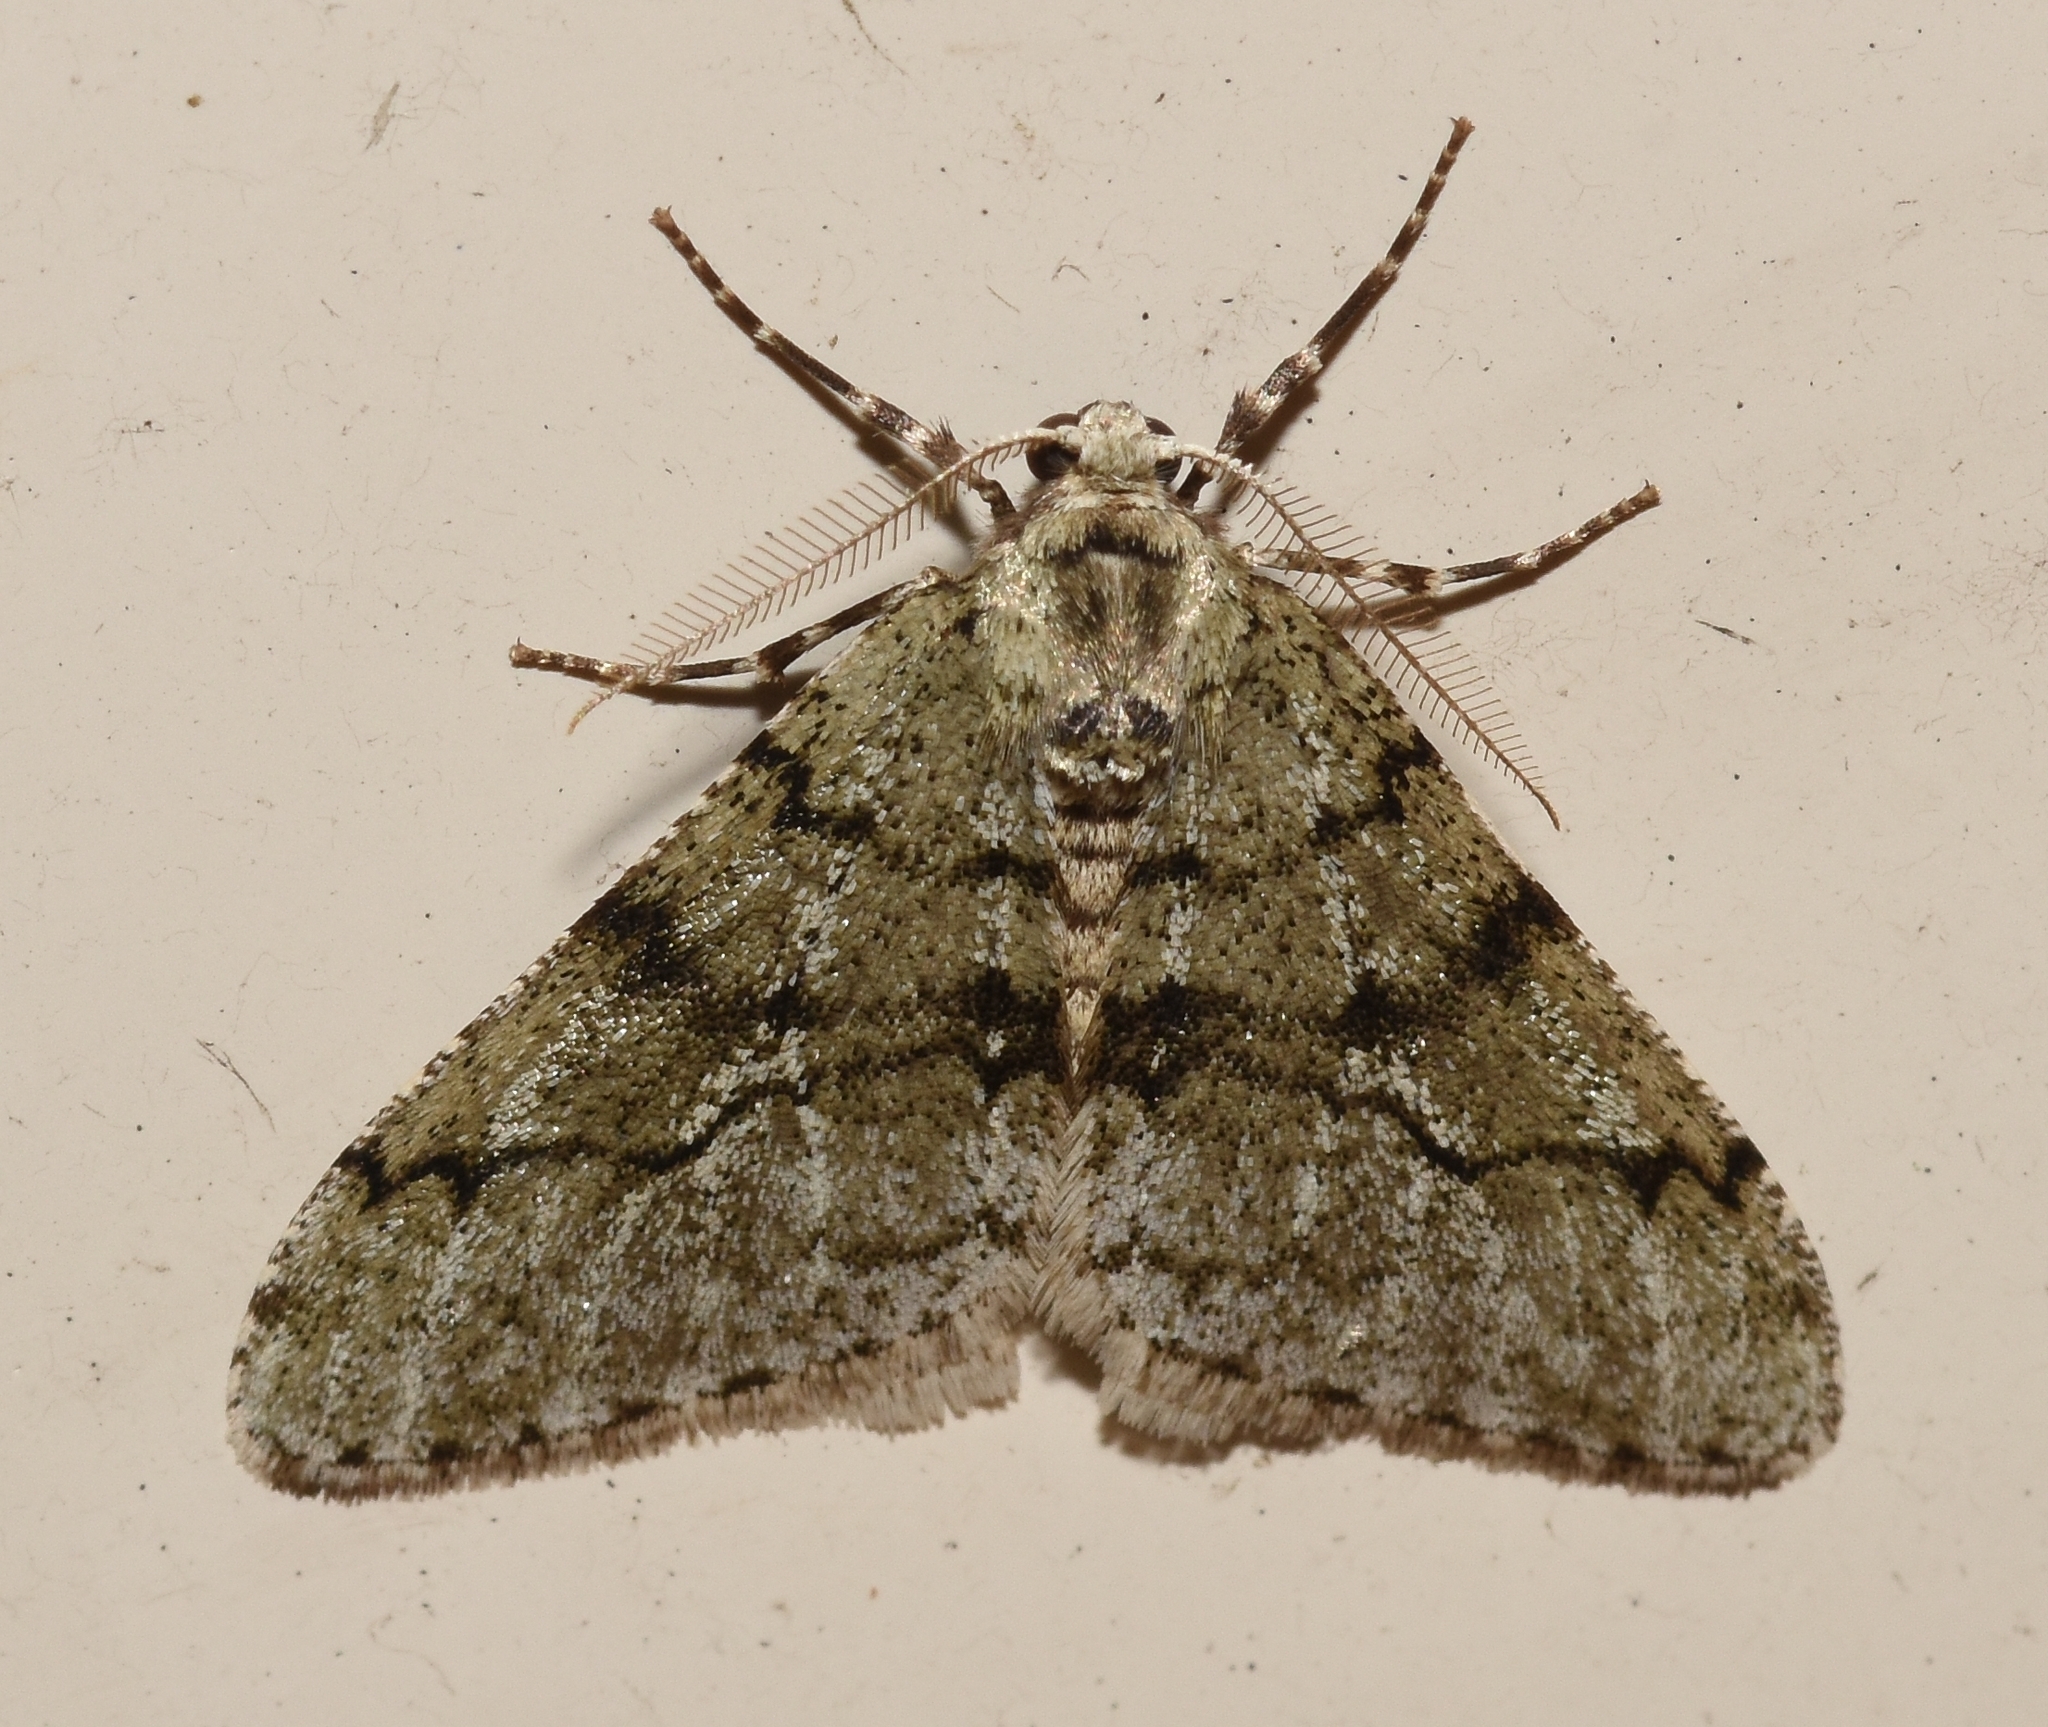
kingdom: Animalia
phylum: Arthropoda
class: Insecta
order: Lepidoptera
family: Geometridae
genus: Phigalia
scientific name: Phigalia strigataria
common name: Small phigalia
